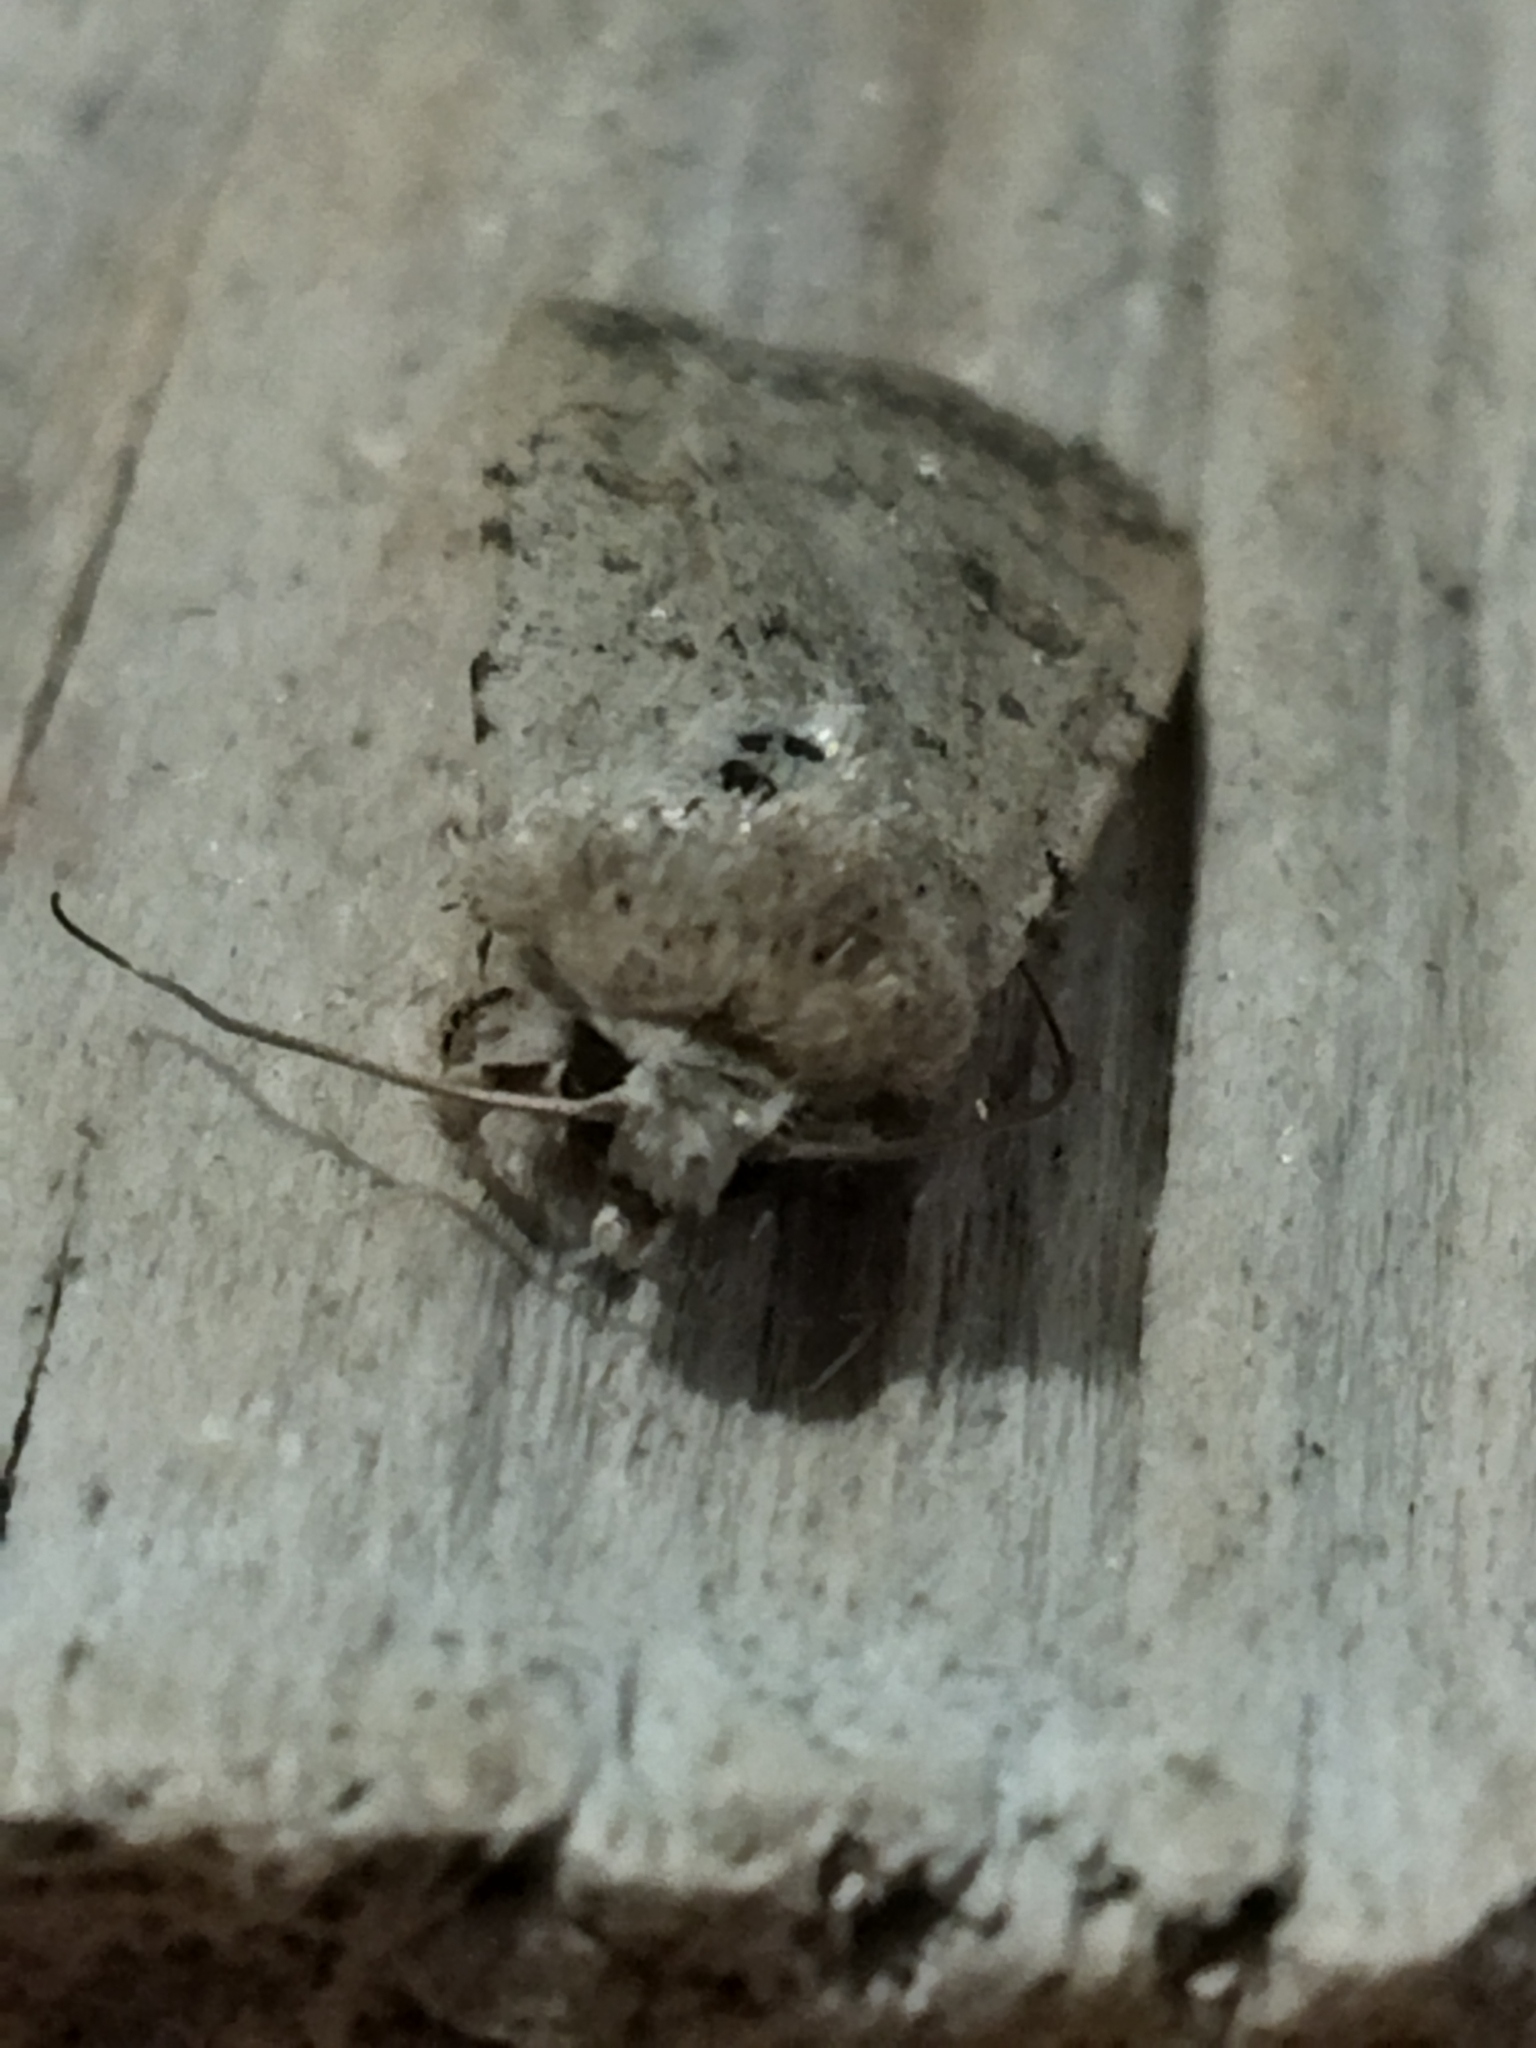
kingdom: Animalia
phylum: Arthropoda
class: Insecta
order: Lepidoptera
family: Noctuidae
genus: Caradrina
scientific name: Caradrina clavipalpis
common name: Pale mottled willow
